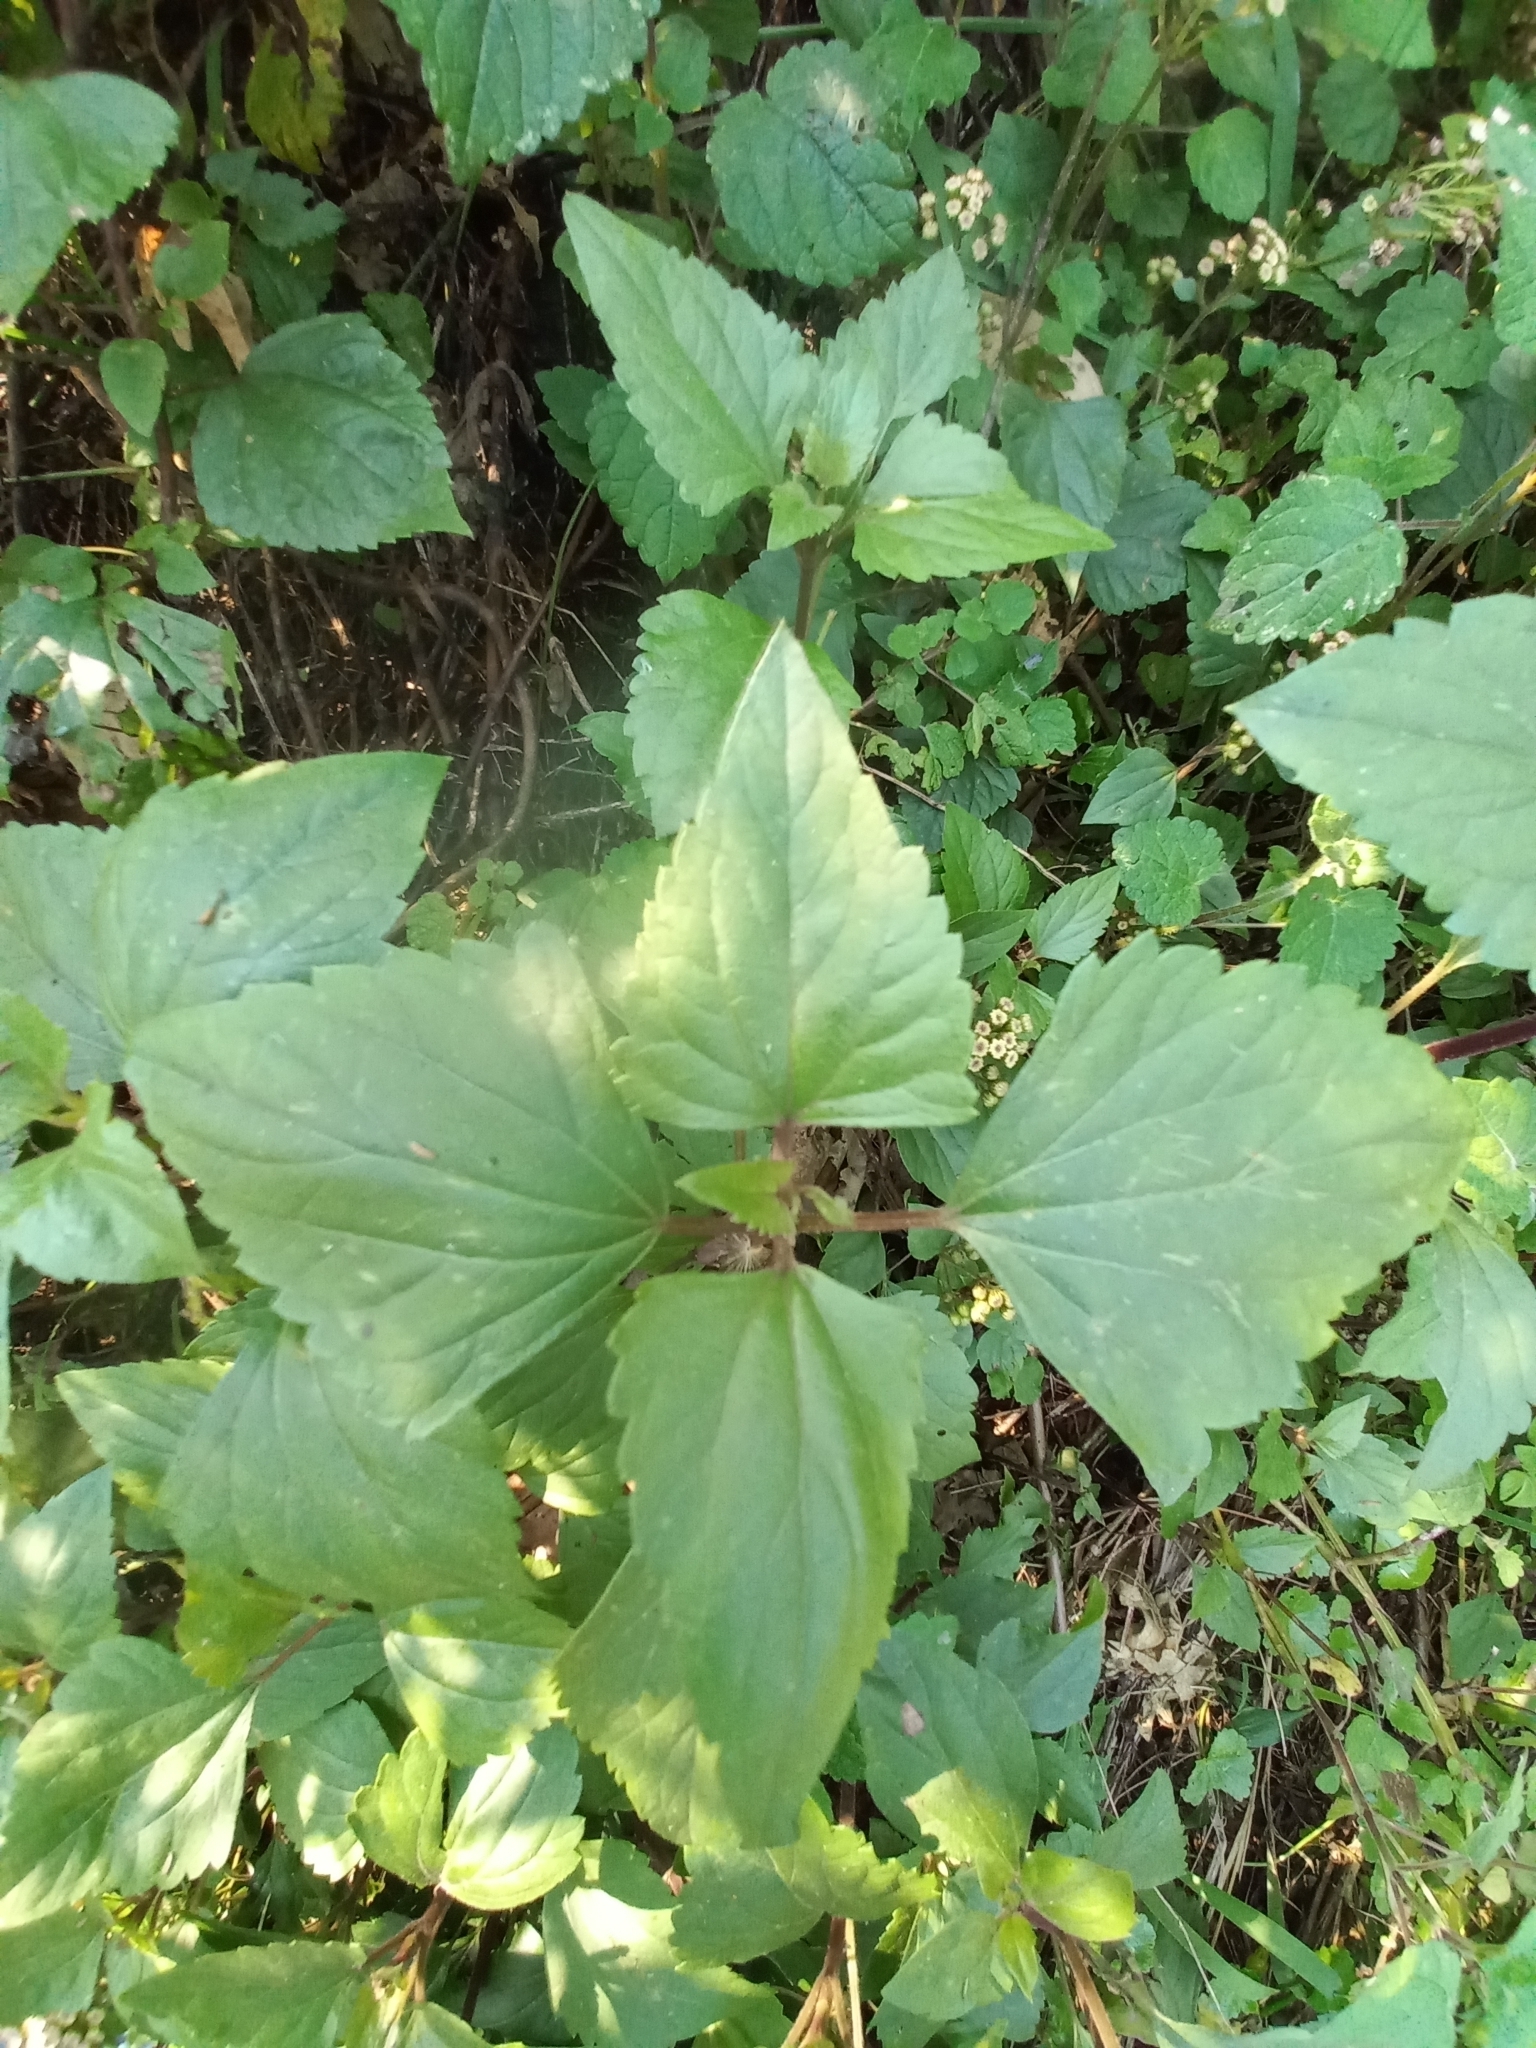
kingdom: Plantae
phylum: Tracheophyta
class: Magnoliopsida
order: Asterales
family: Asteraceae
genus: Ageratina
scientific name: Ageratina adenophora
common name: Sticky snakeroot
